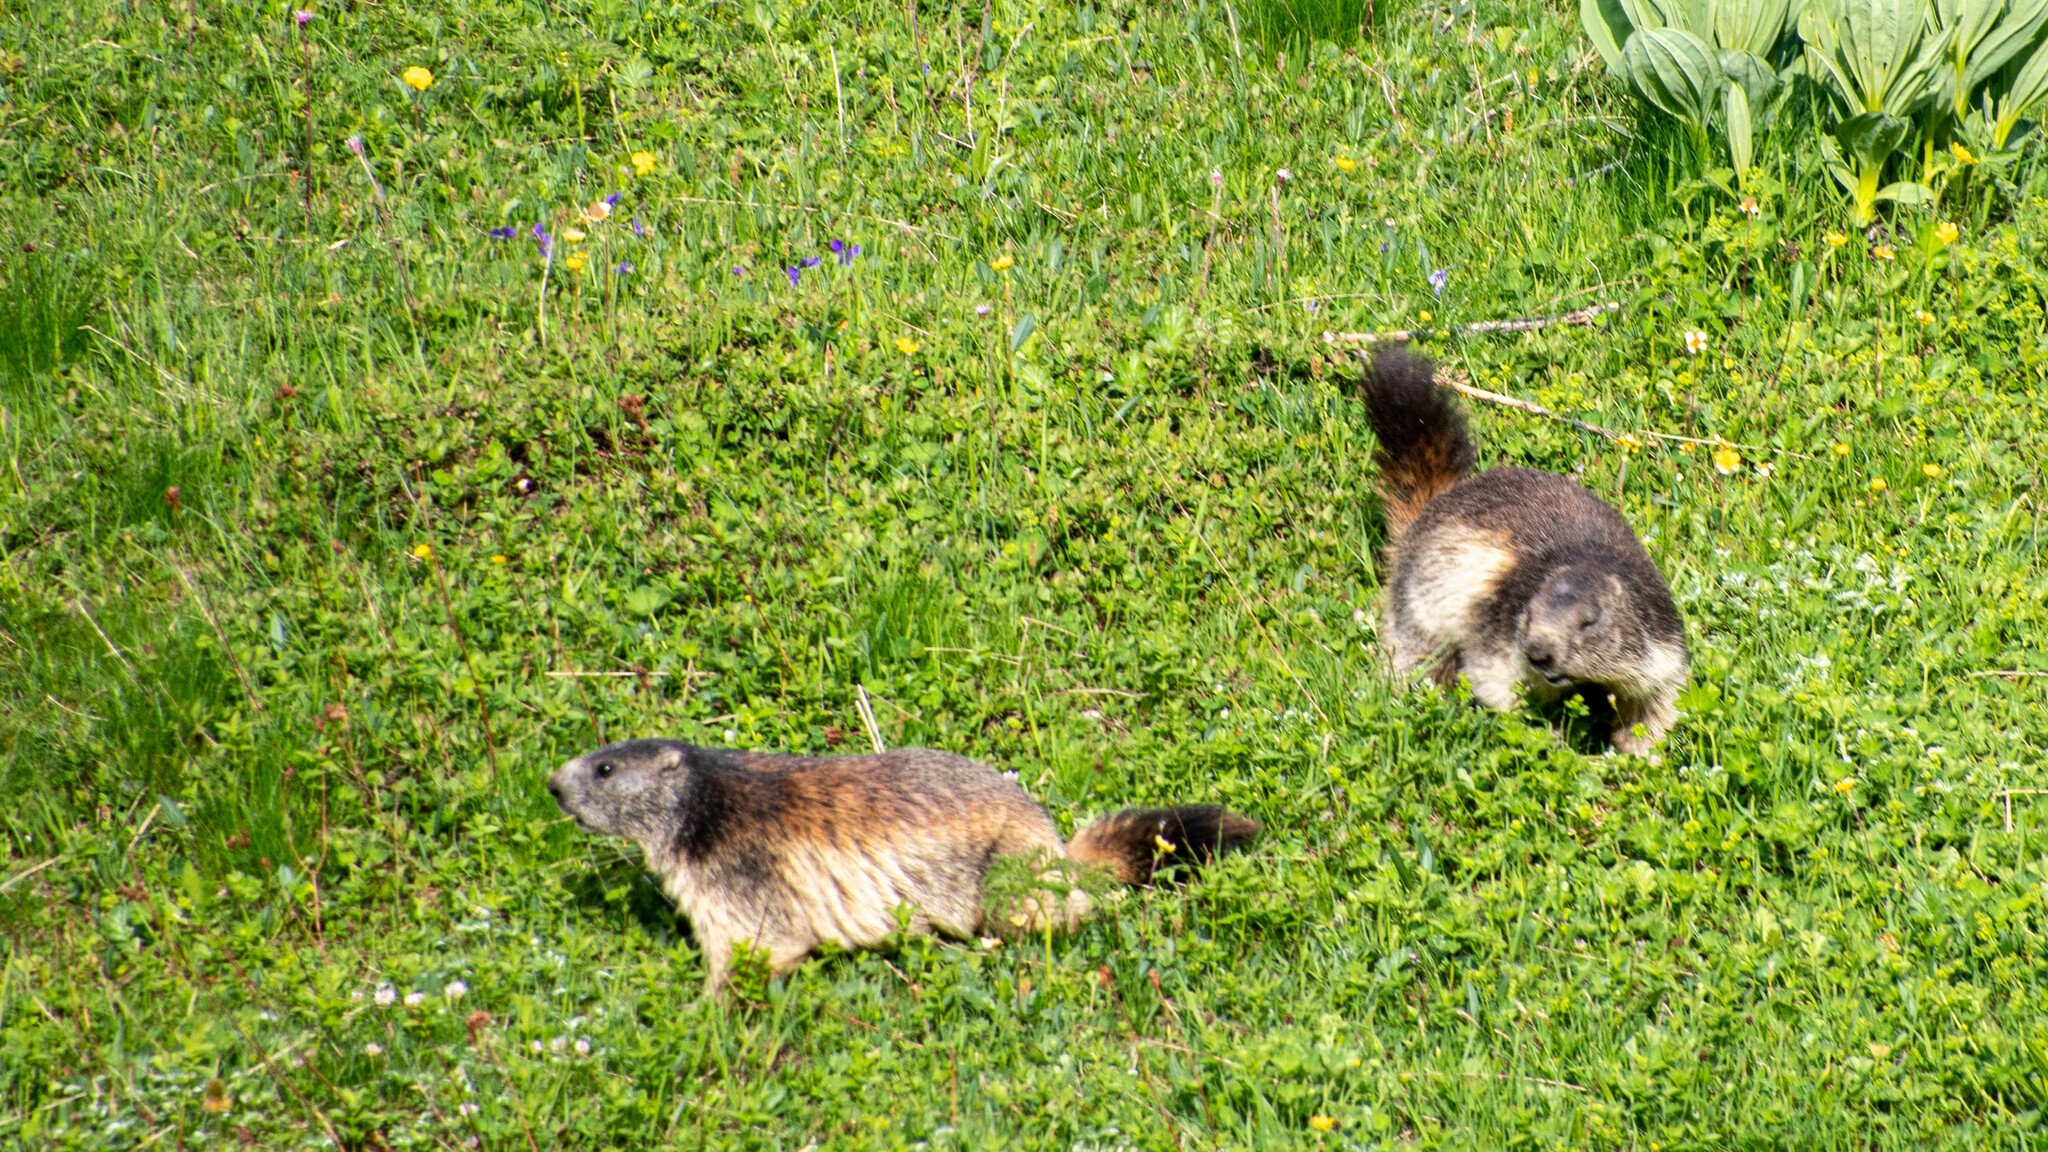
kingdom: Animalia
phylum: Chordata
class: Mammalia
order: Rodentia
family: Sciuridae
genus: Marmota
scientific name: Marmota marmota
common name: Alpine marmot
